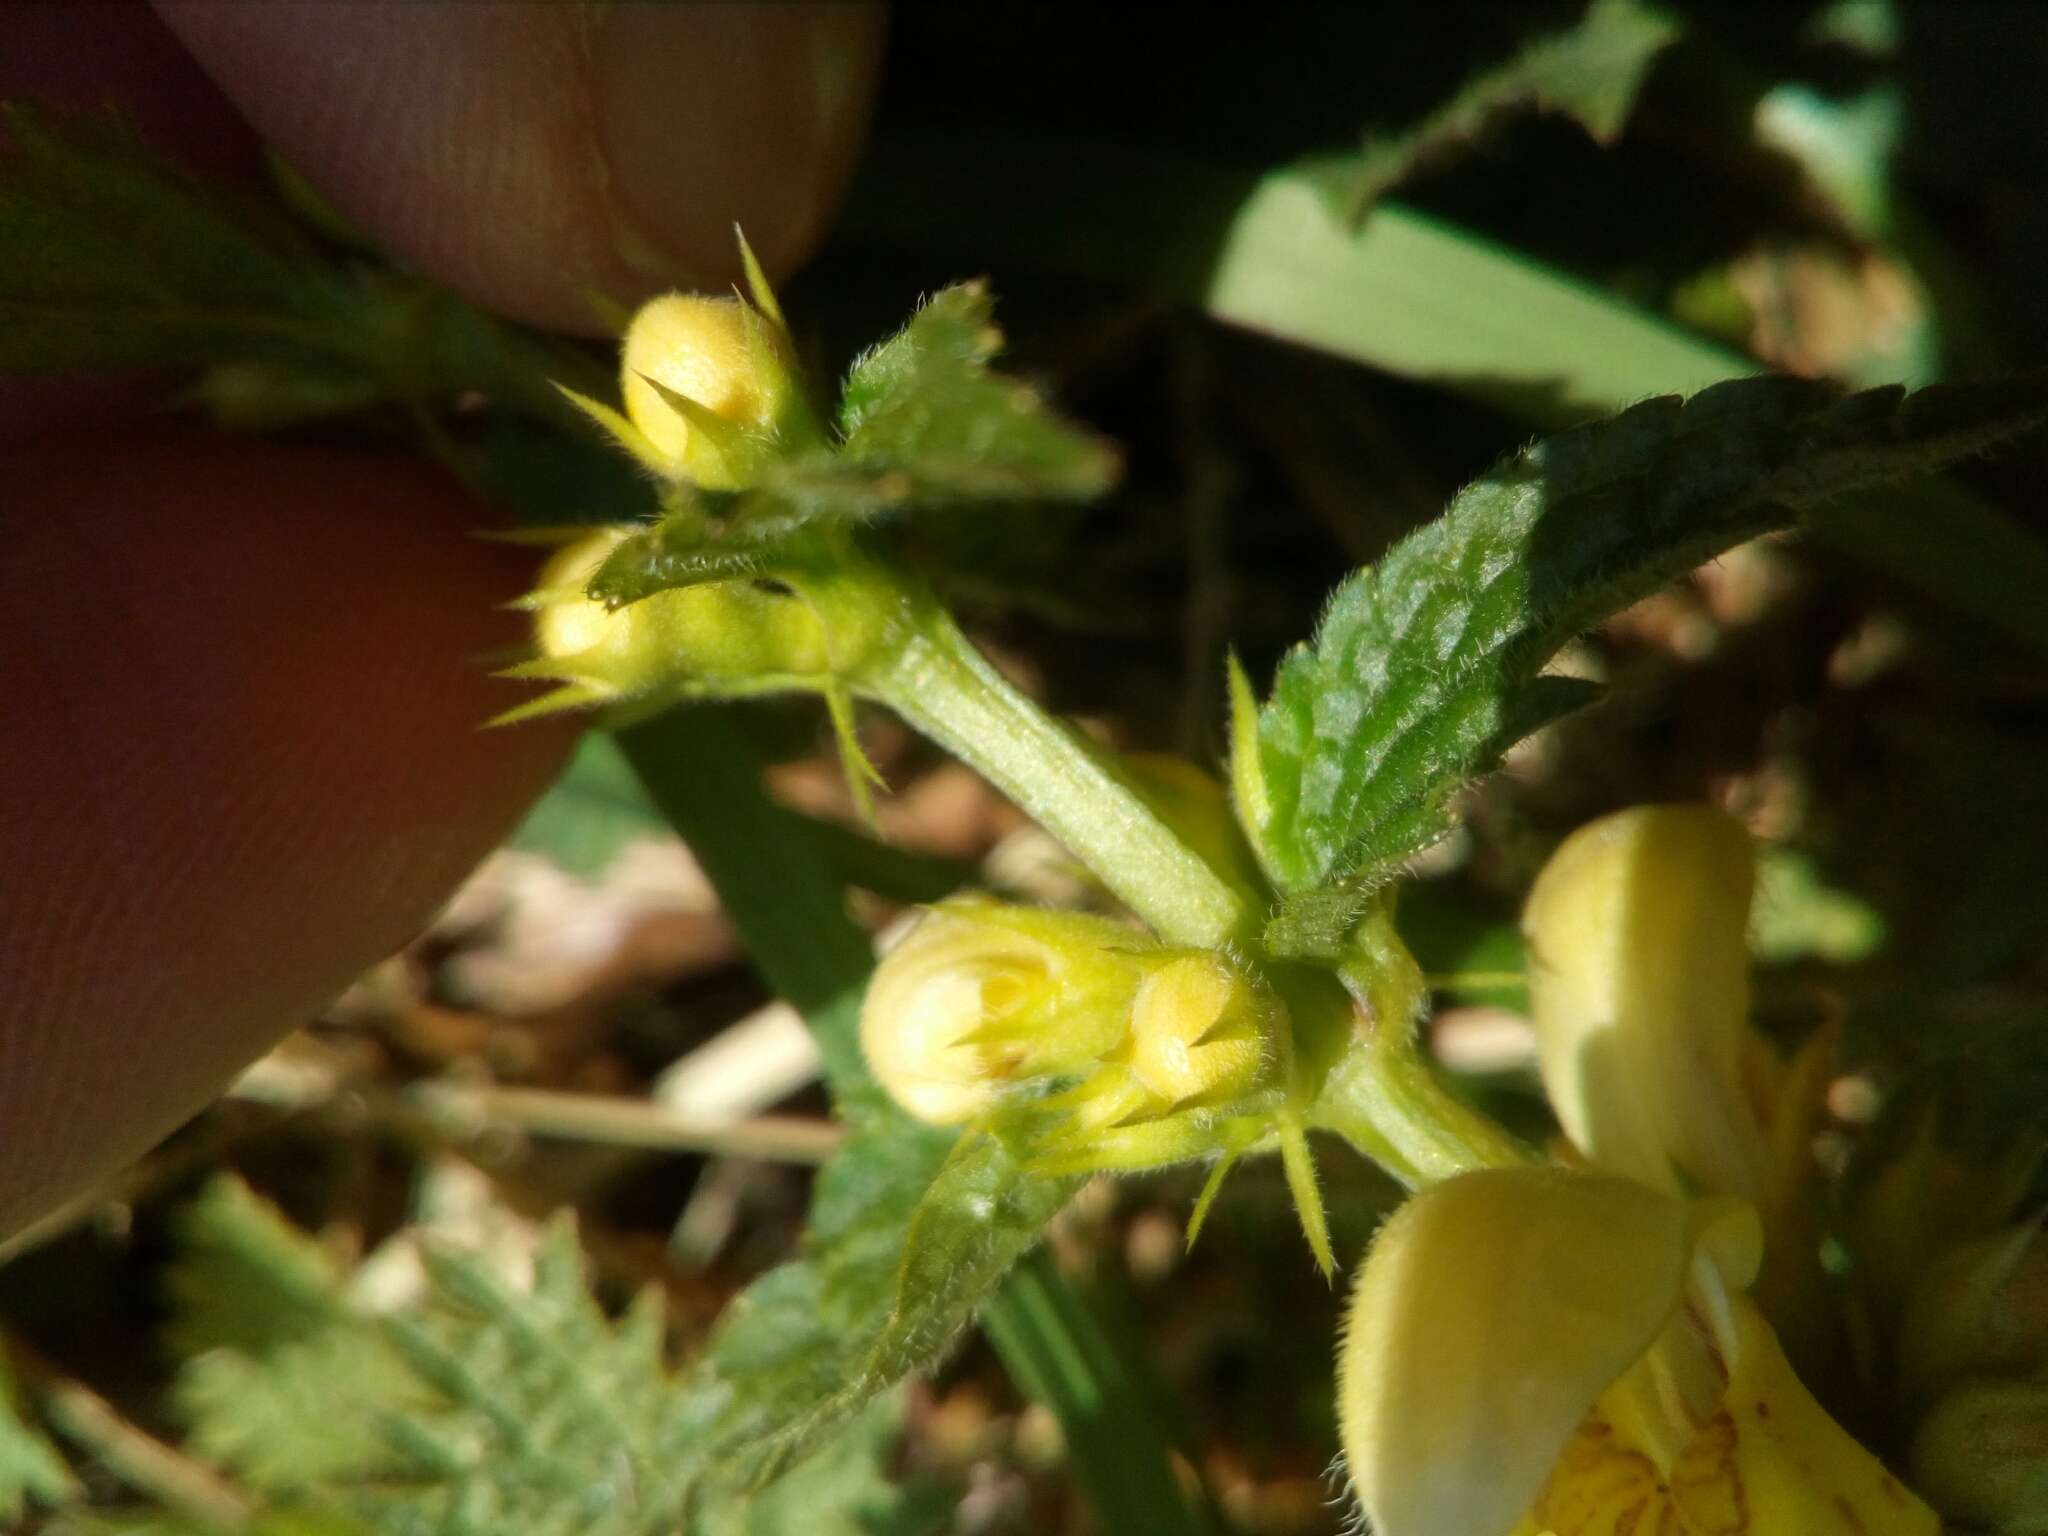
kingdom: Plantae
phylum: Tracheophyta
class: Magnoliopsida
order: Lamiales
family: Lamiaceae
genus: Lamium
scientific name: Lamium galeobdolon
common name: Yellow archangel
